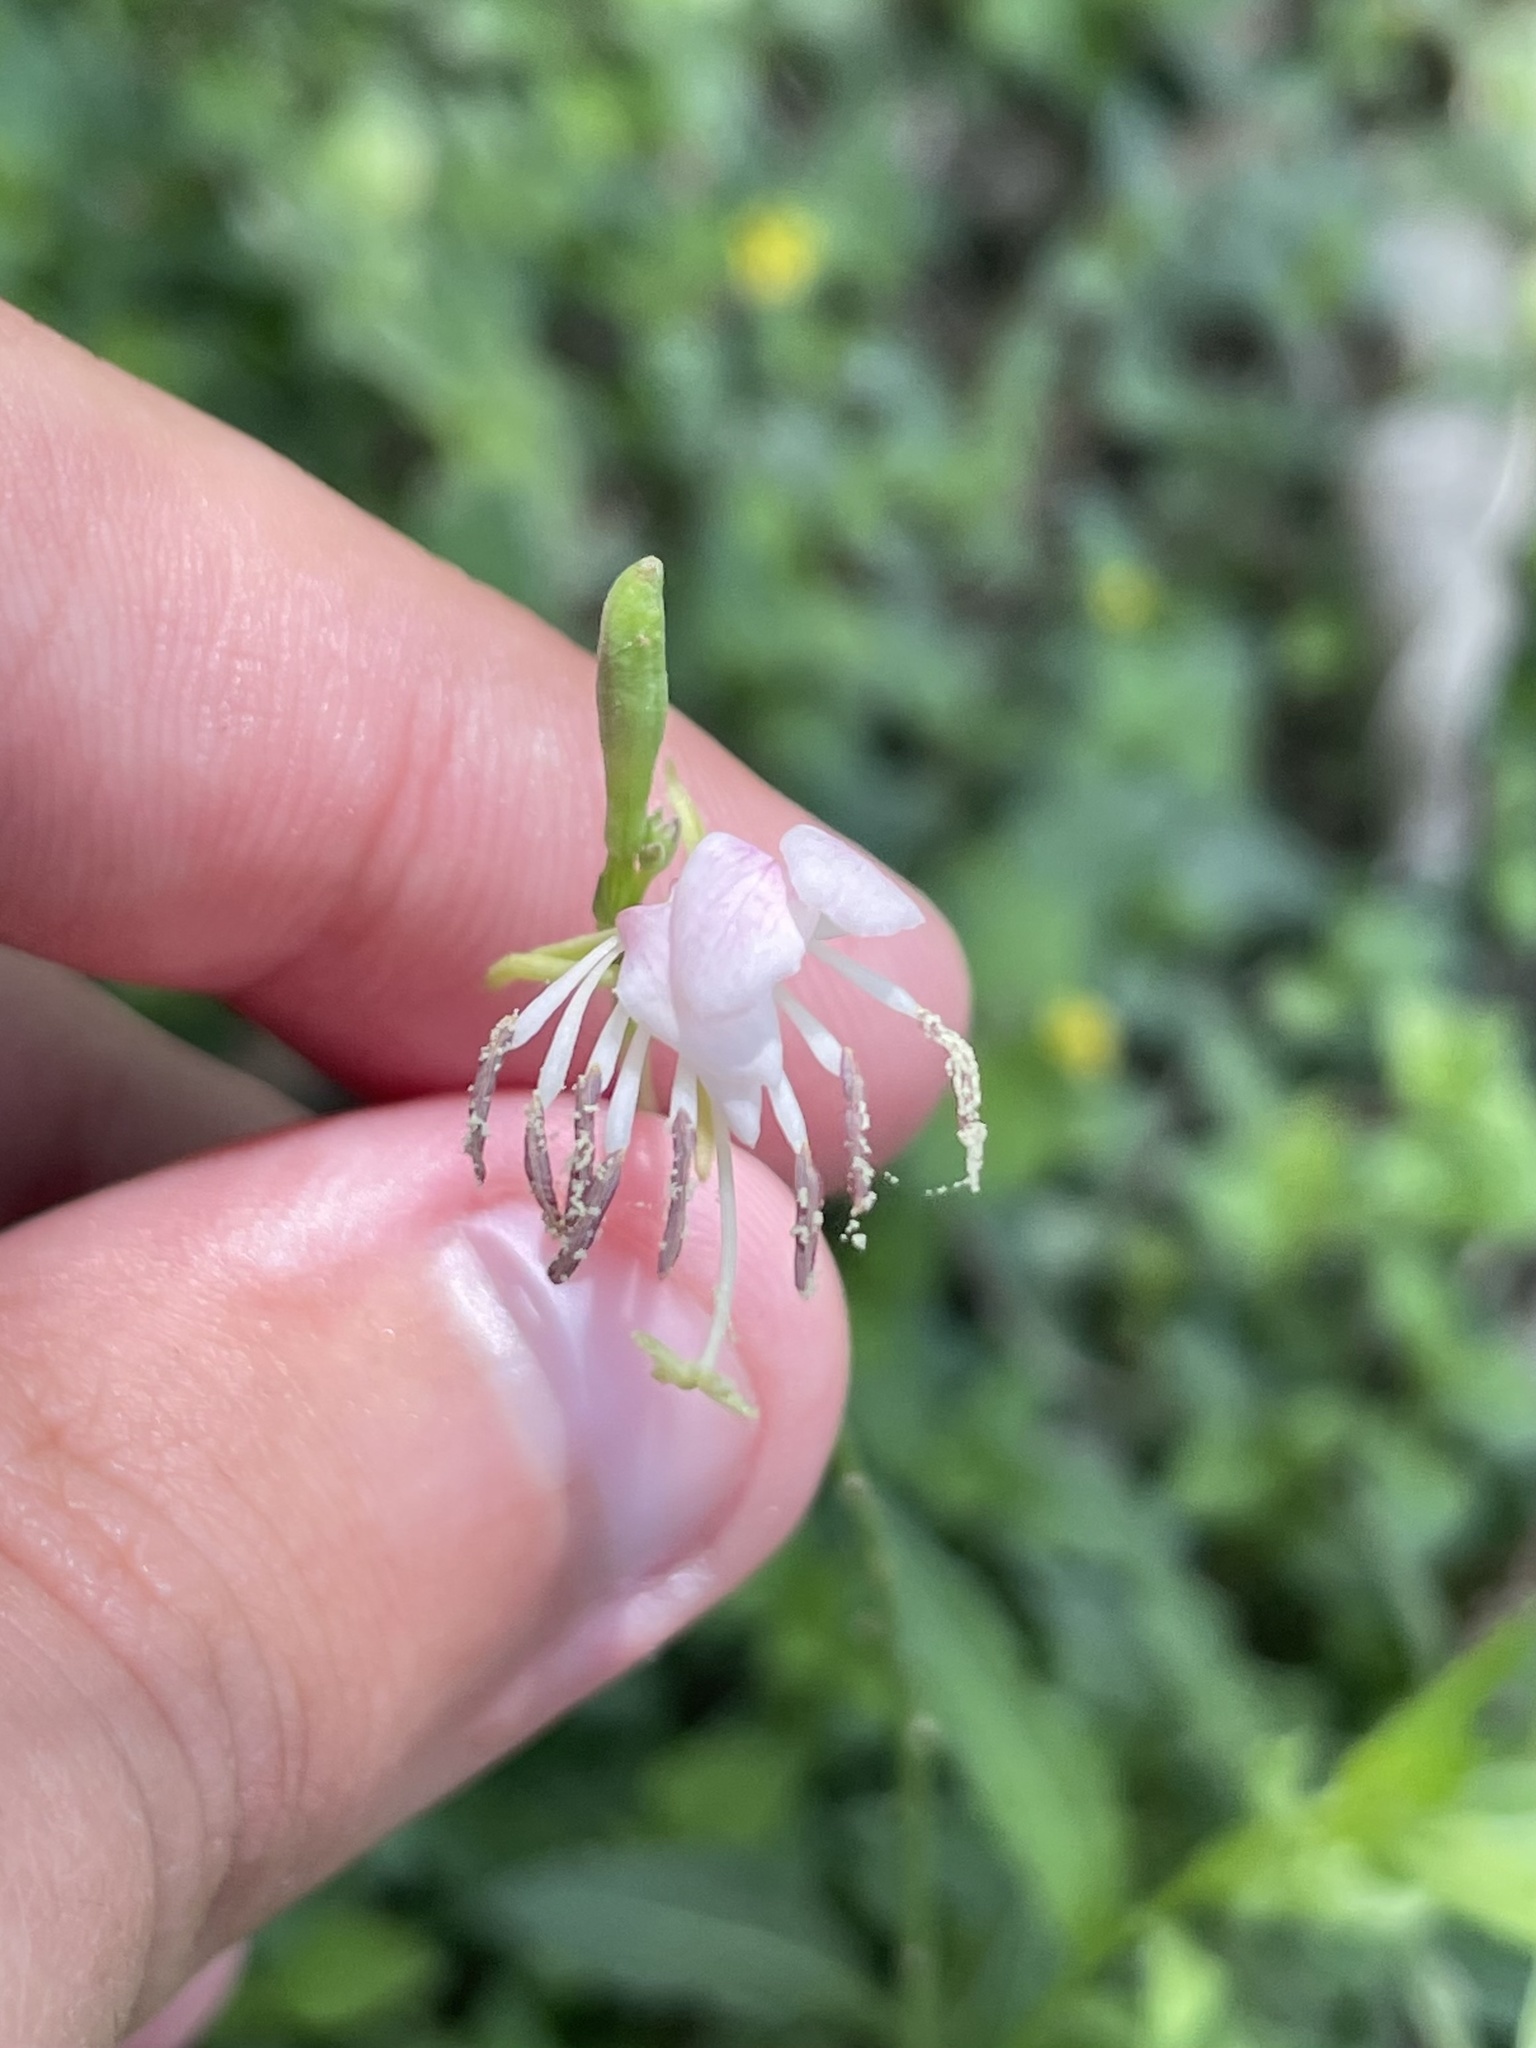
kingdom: Plantae
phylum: Tracheophyta
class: Magnoliopsida
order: Myrtales
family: Onagraceae
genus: Oenothera
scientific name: Oenothera suffulta
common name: Kisses
